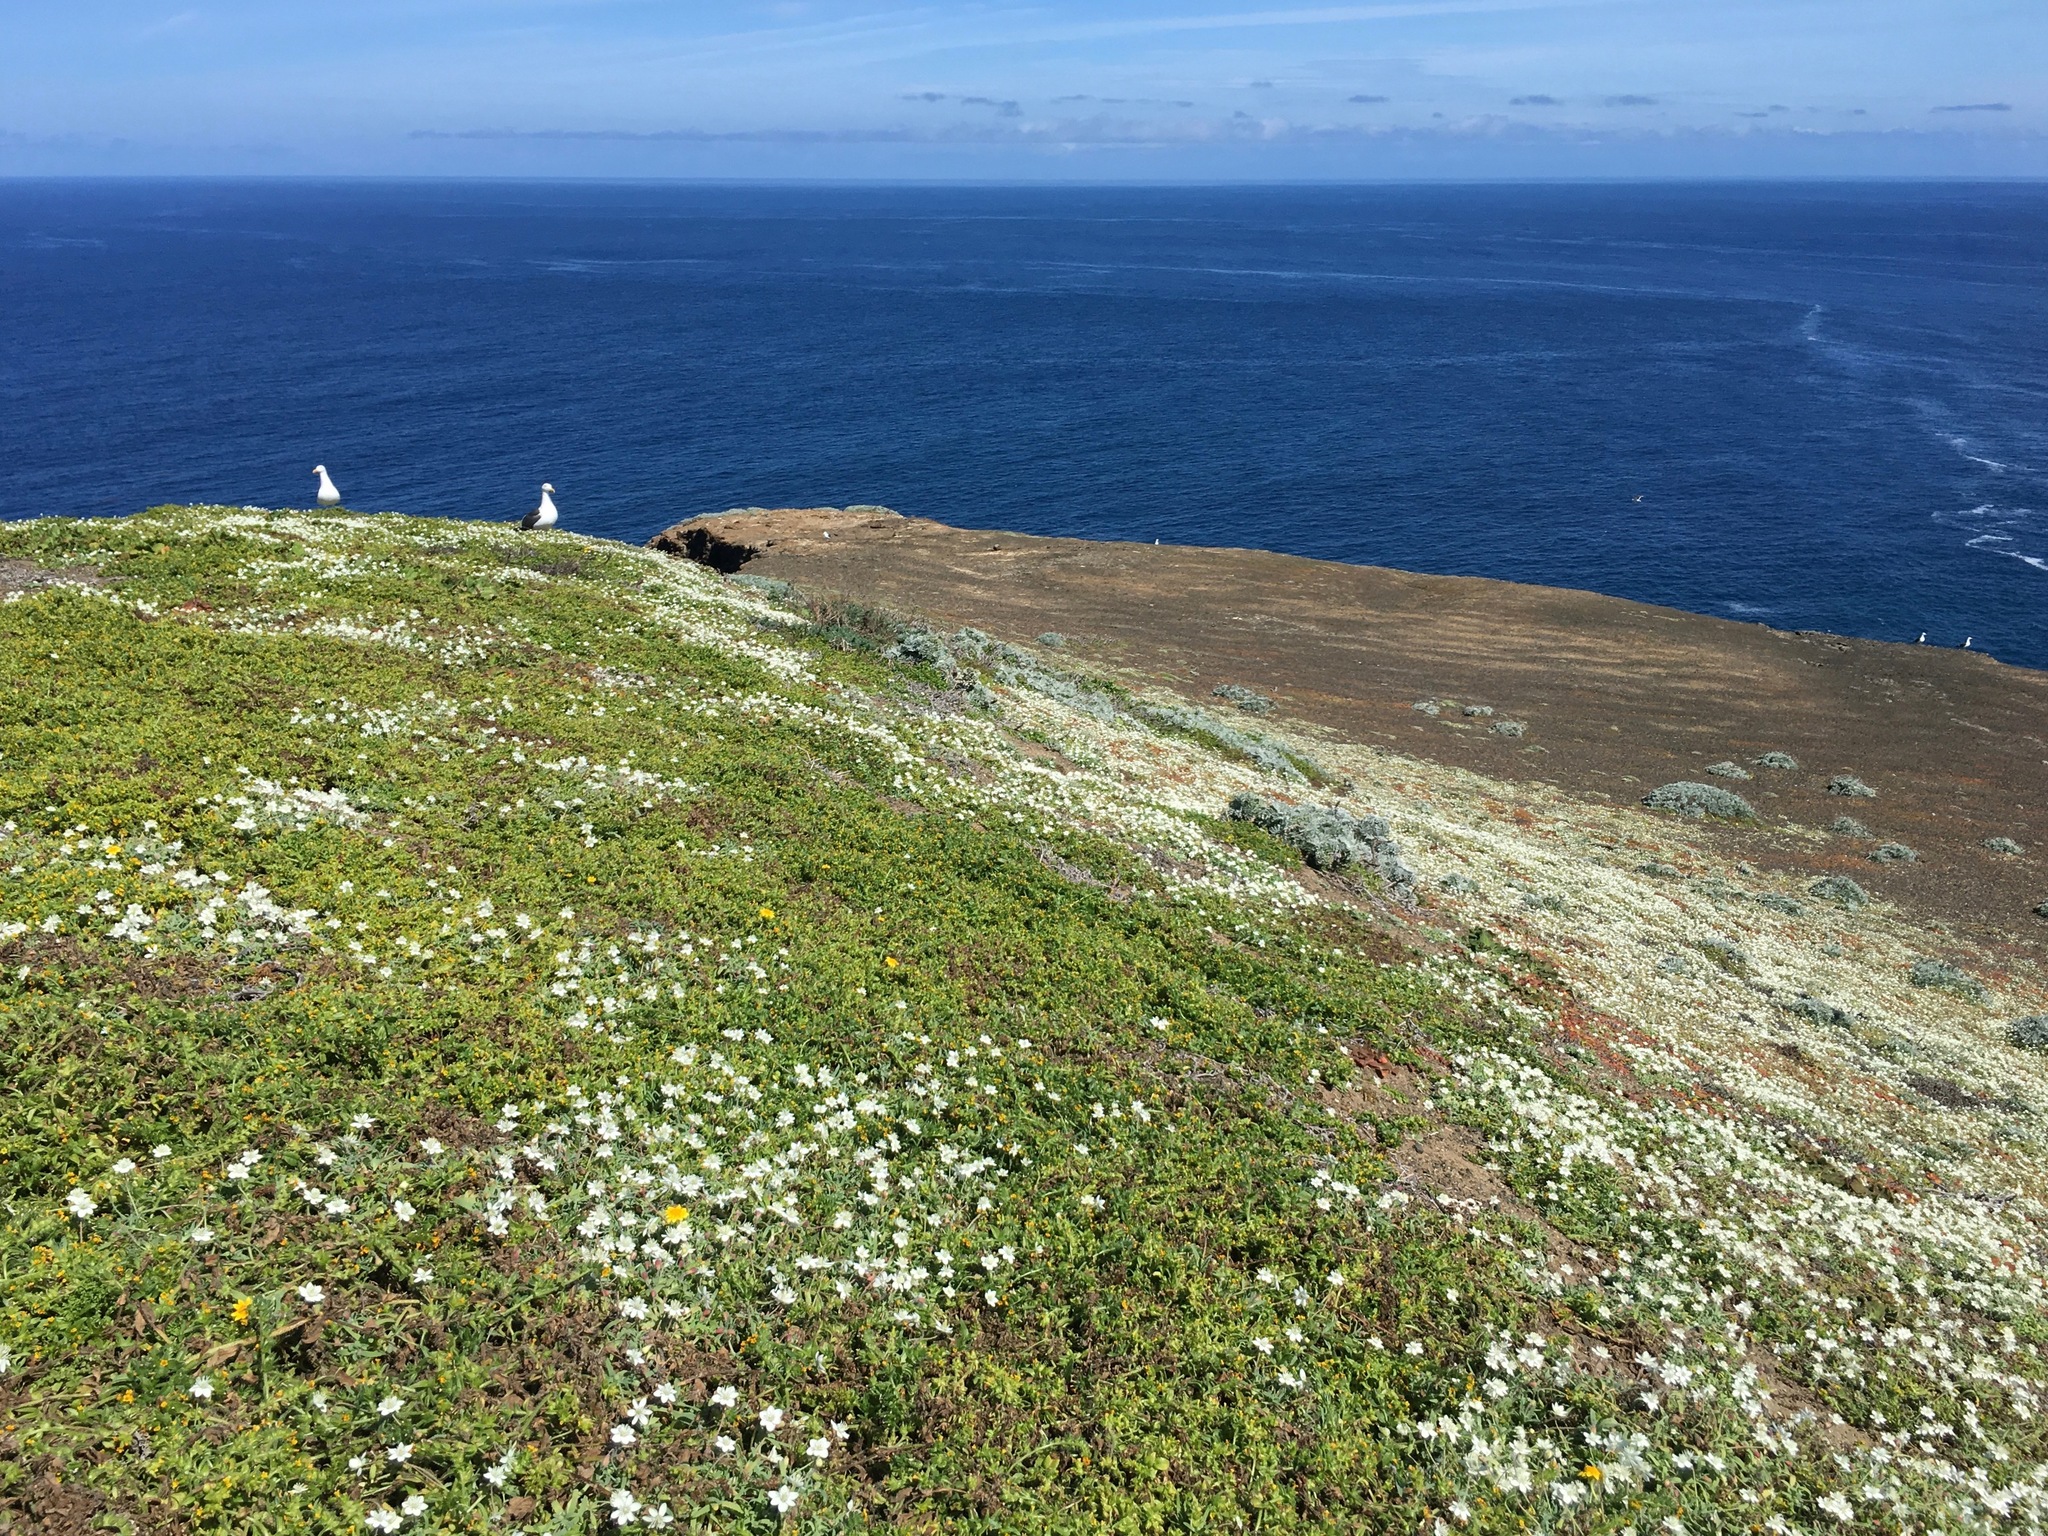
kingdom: Plantae
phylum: Tracheophyta
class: Magnoliopsida
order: Ranunculales
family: Papaveraceae
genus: Platystemon
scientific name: Platystemon californicus
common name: Cream-cups
